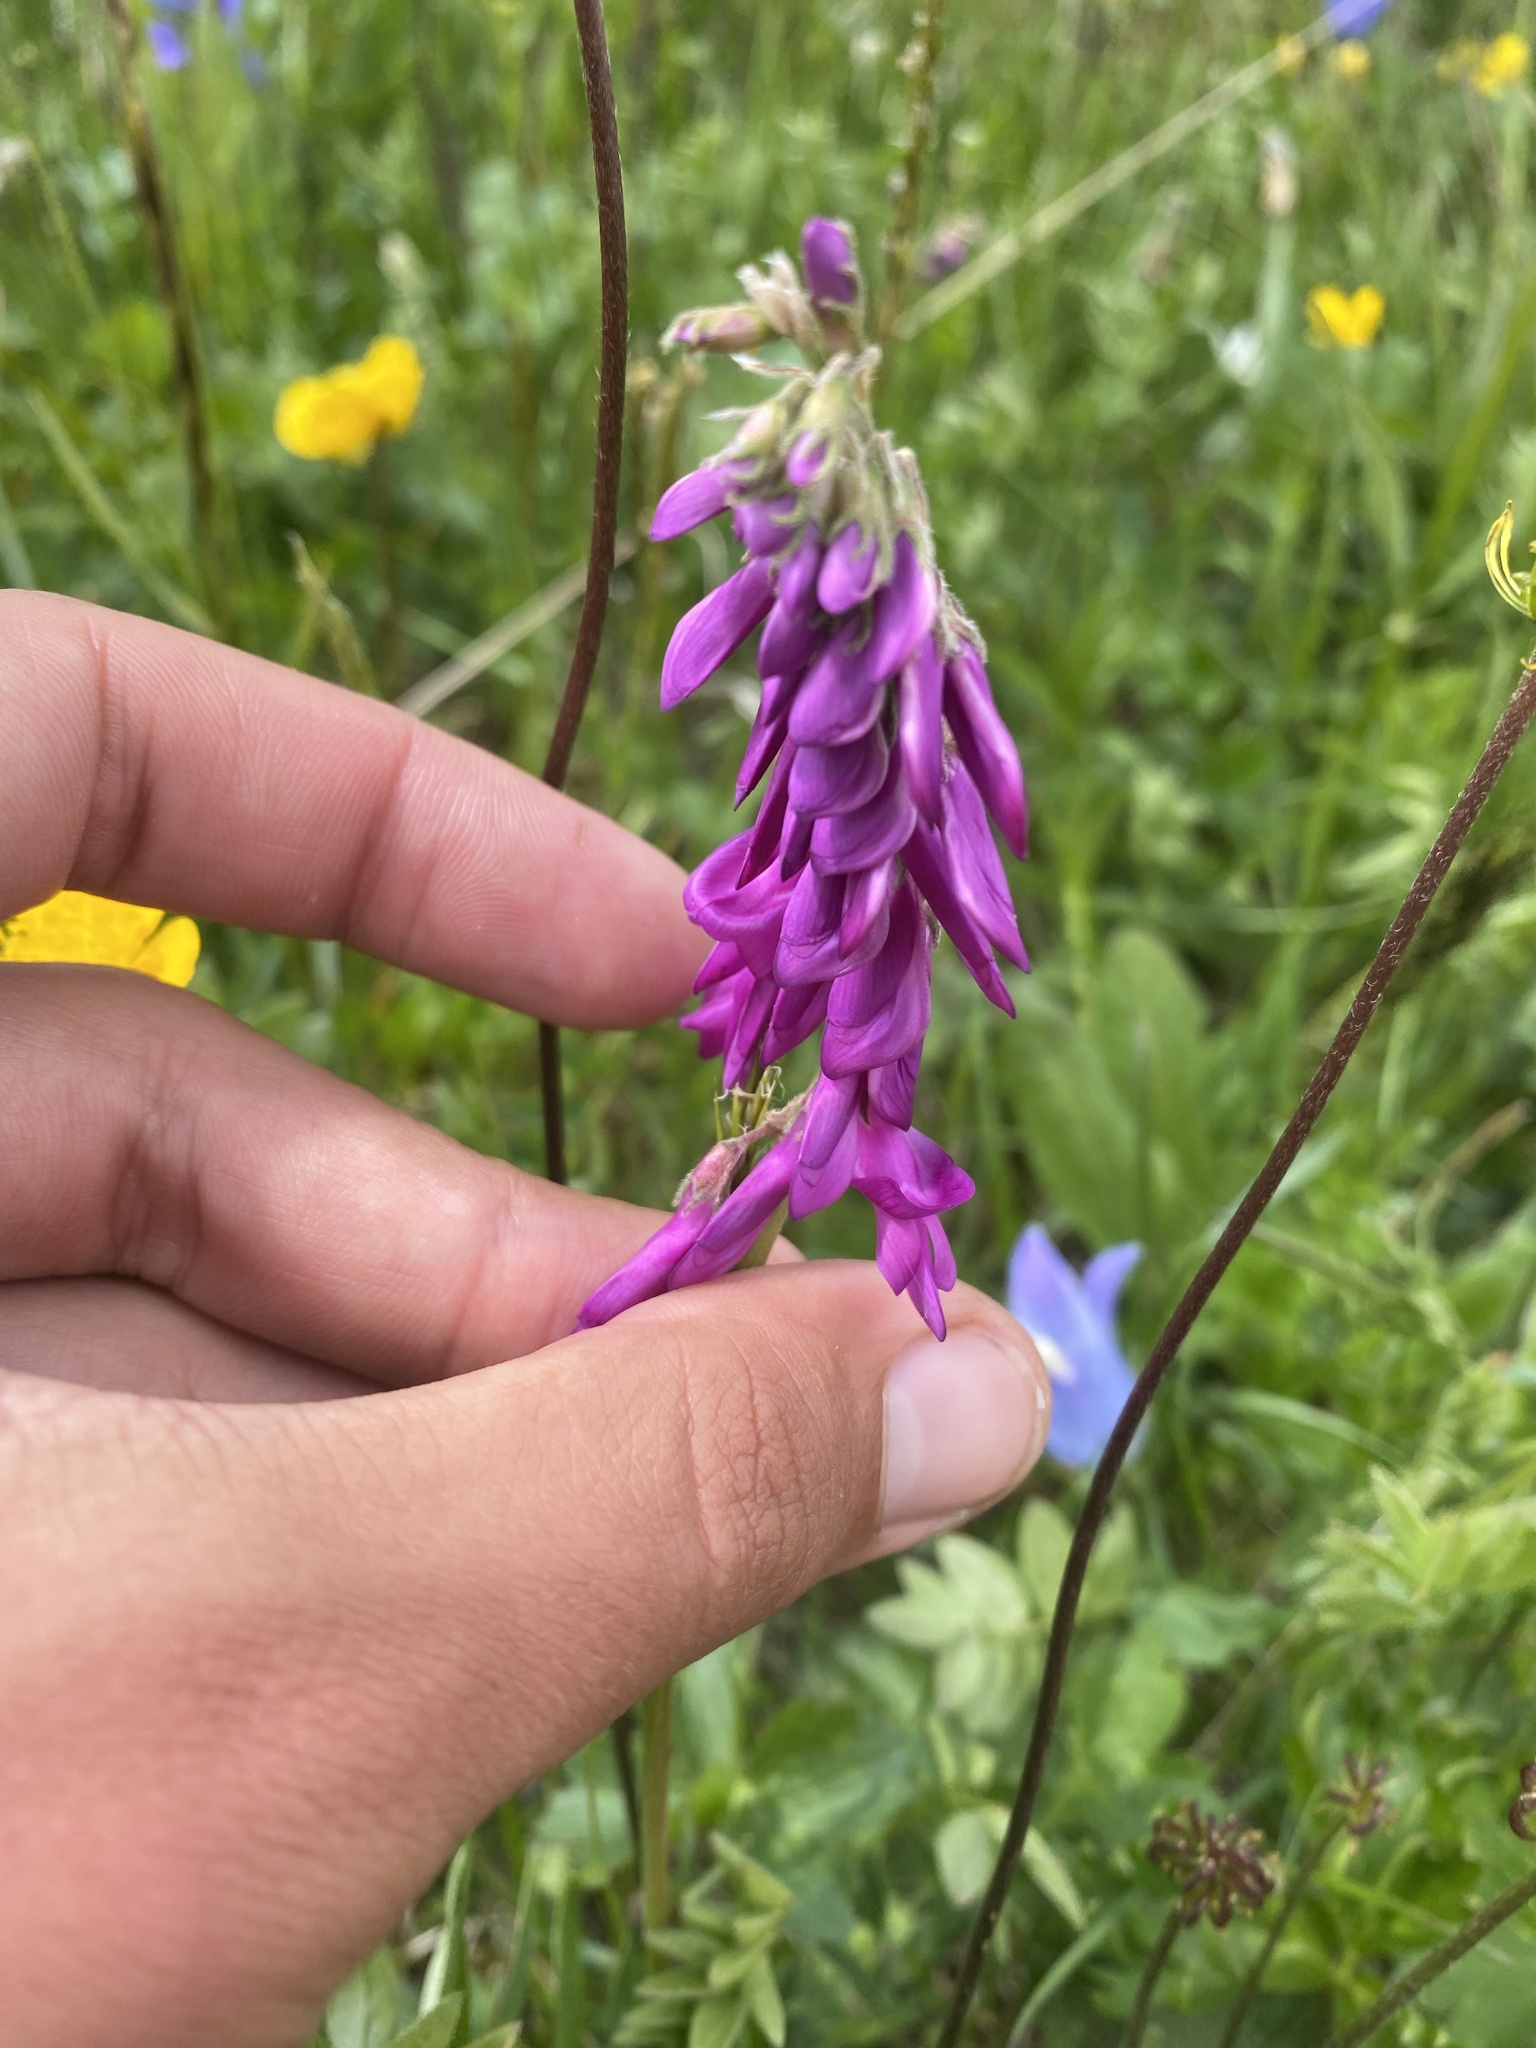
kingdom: Plantae
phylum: Tracheophyta
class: Magnoliopsida
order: Fabales
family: Fabaceae
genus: Hedysarum
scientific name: Hedysarum caucasicum
